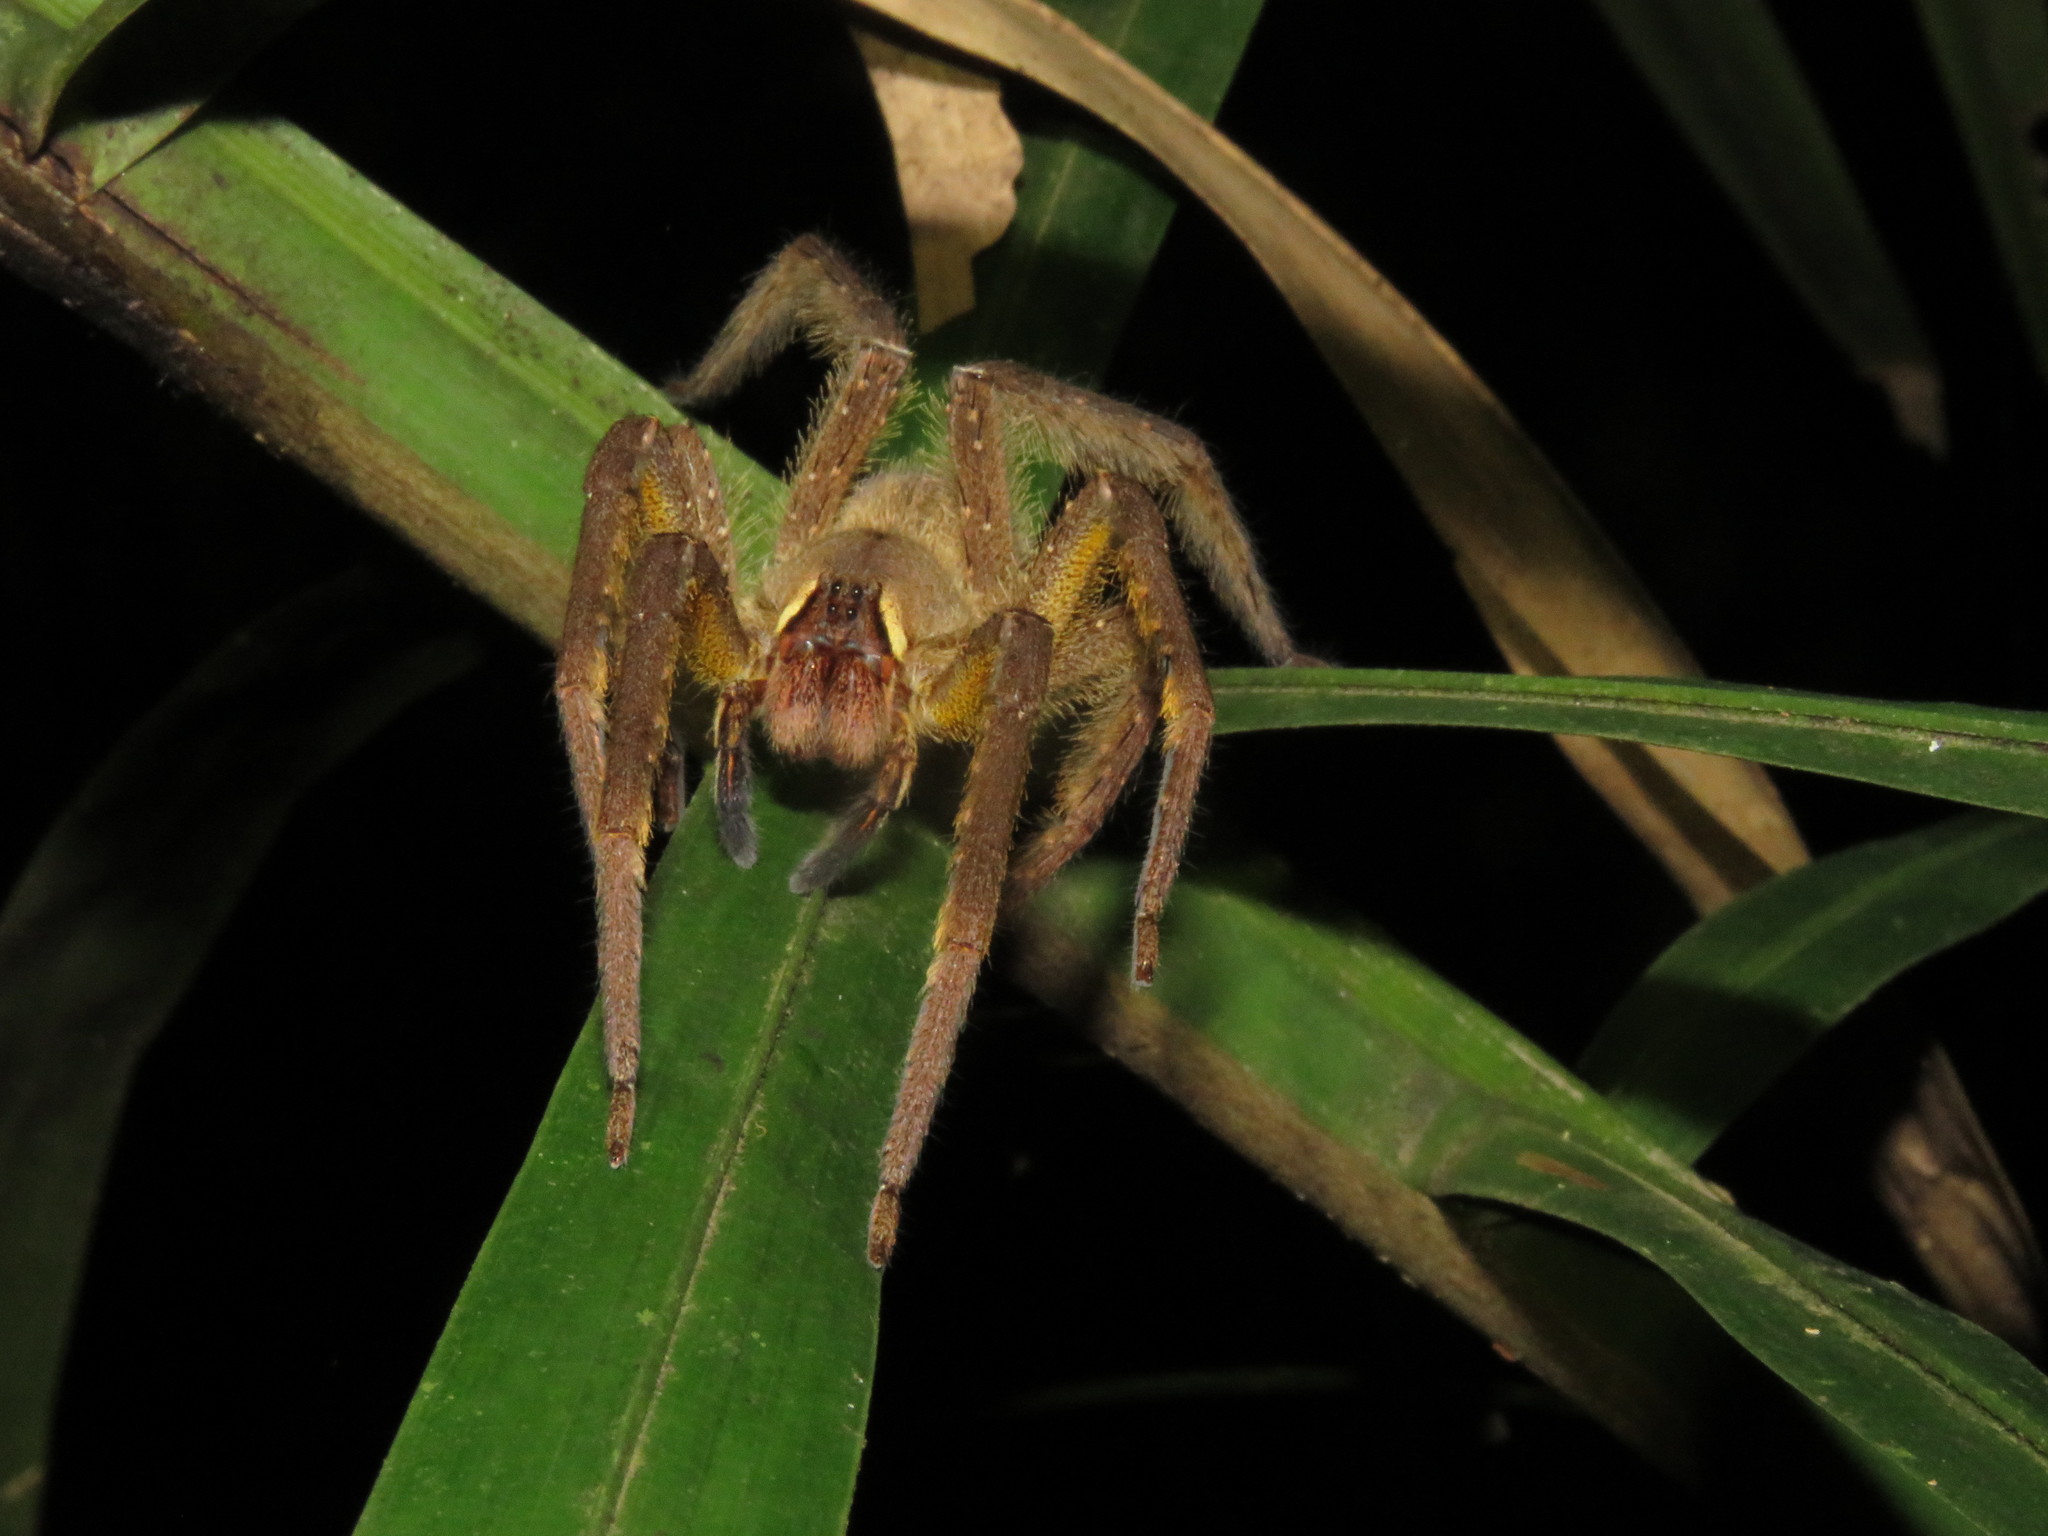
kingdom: Animalia
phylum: Arthropoda
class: Arachnida
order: Araneae
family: Ctenidae
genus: Phoneutria
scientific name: Phoneutria boliviensis
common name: Wandering spiders
